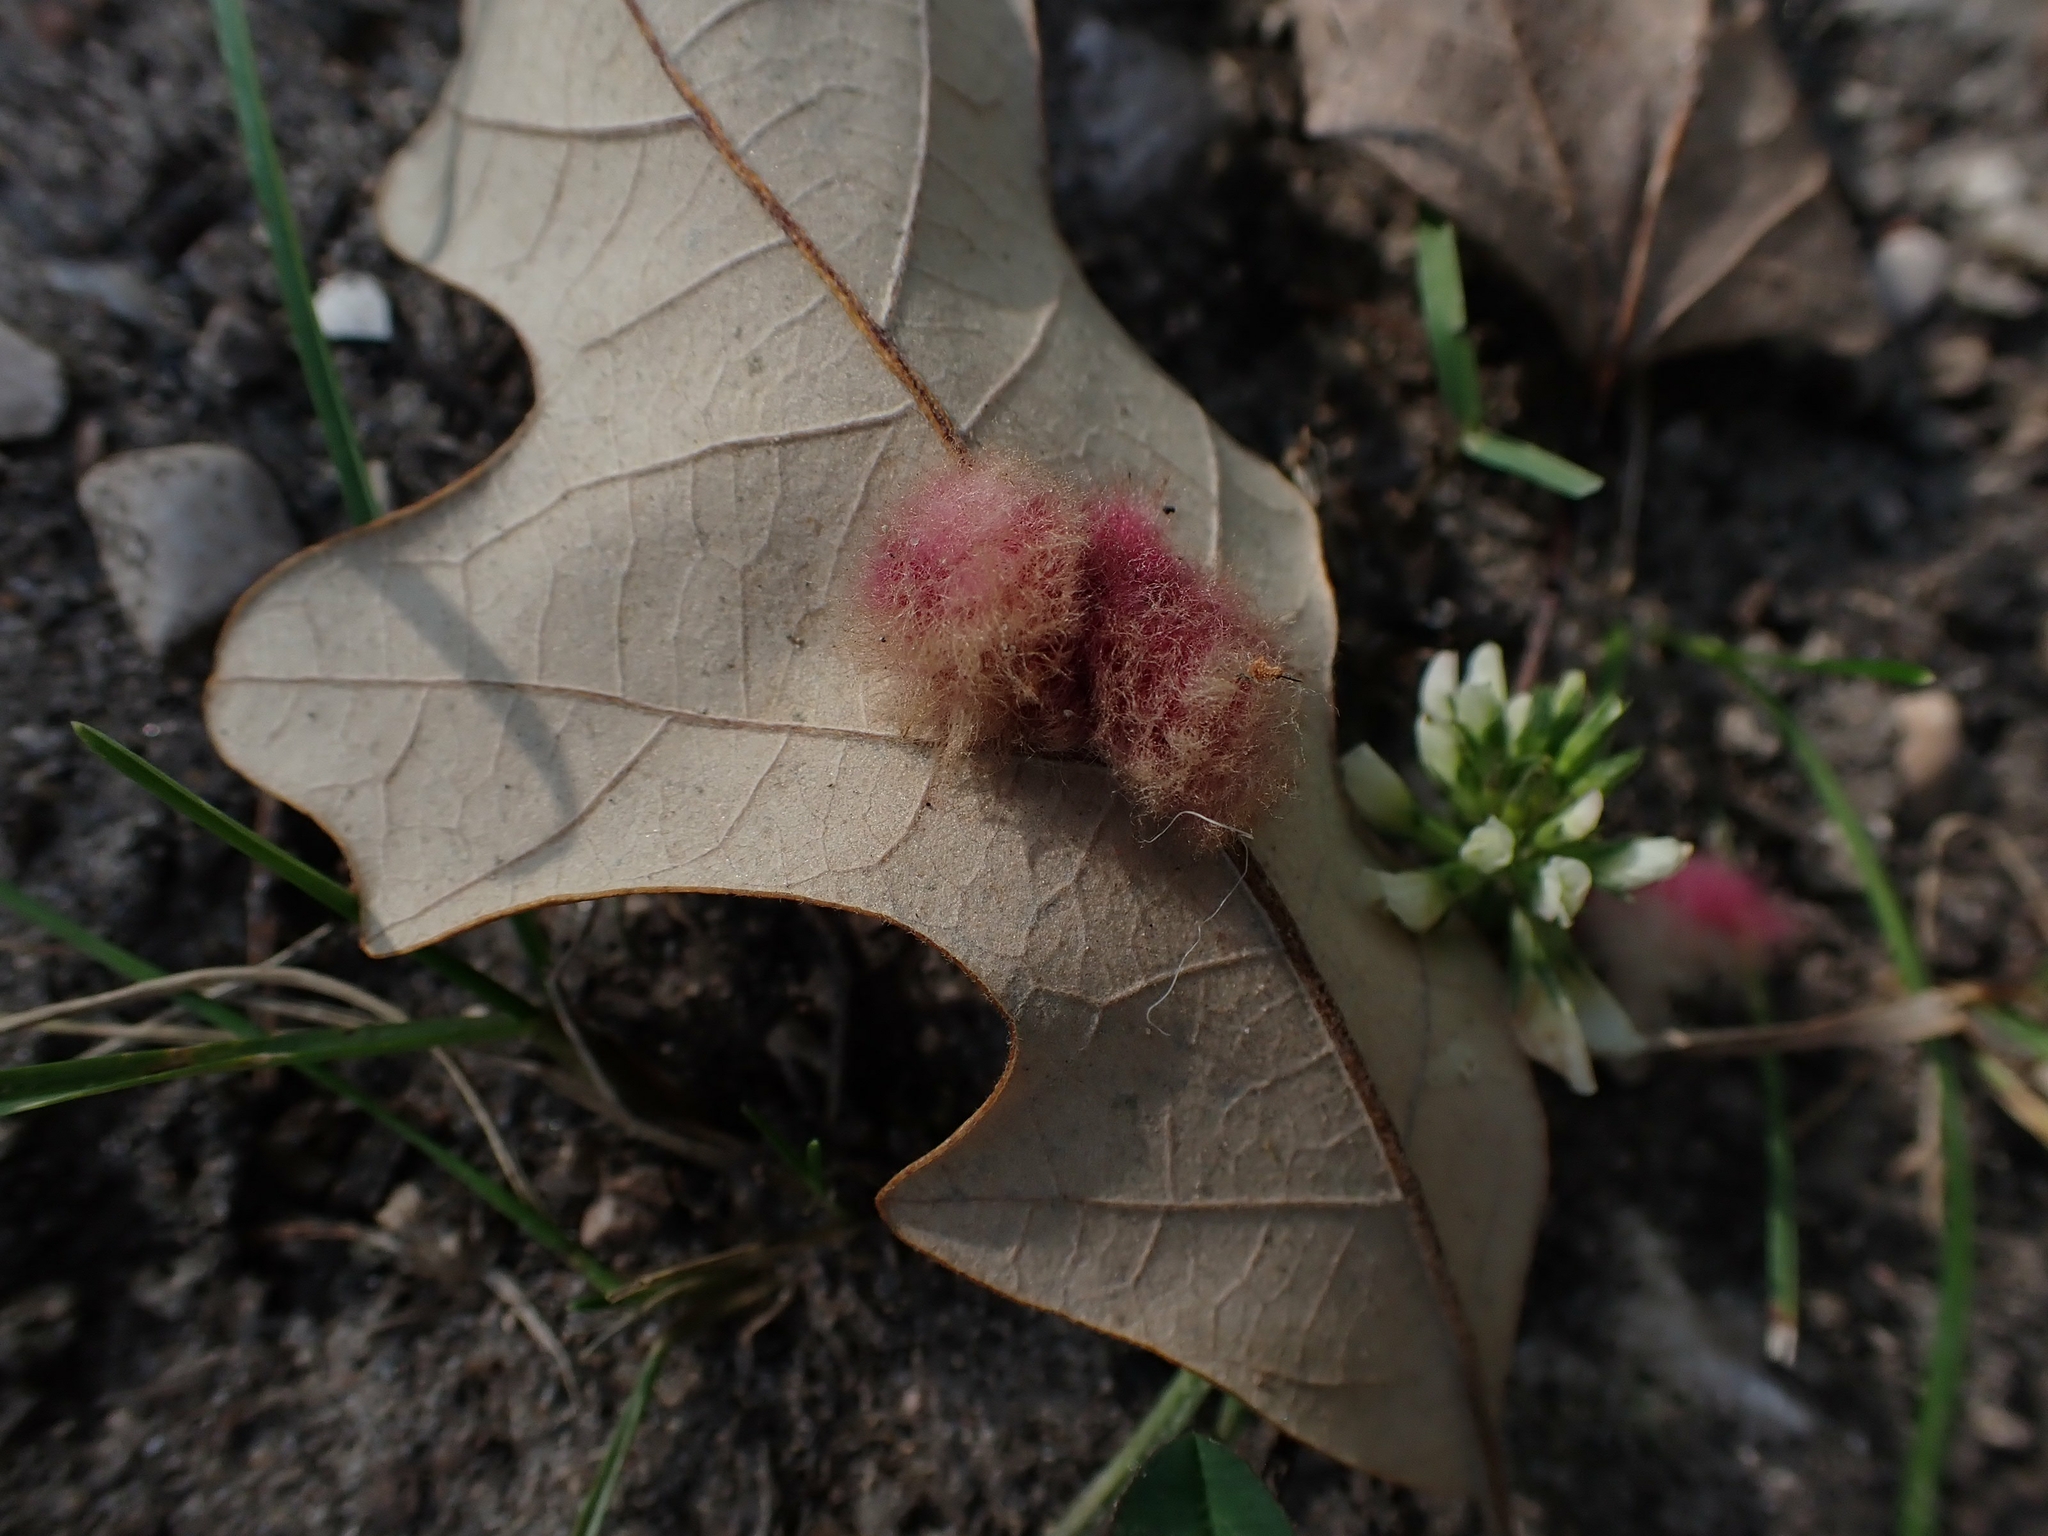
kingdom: Animalia
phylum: Arthropoda
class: Insecta
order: Hymenoptera
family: Cynipidae
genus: Andricus
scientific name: Andricus Druon ignotum
